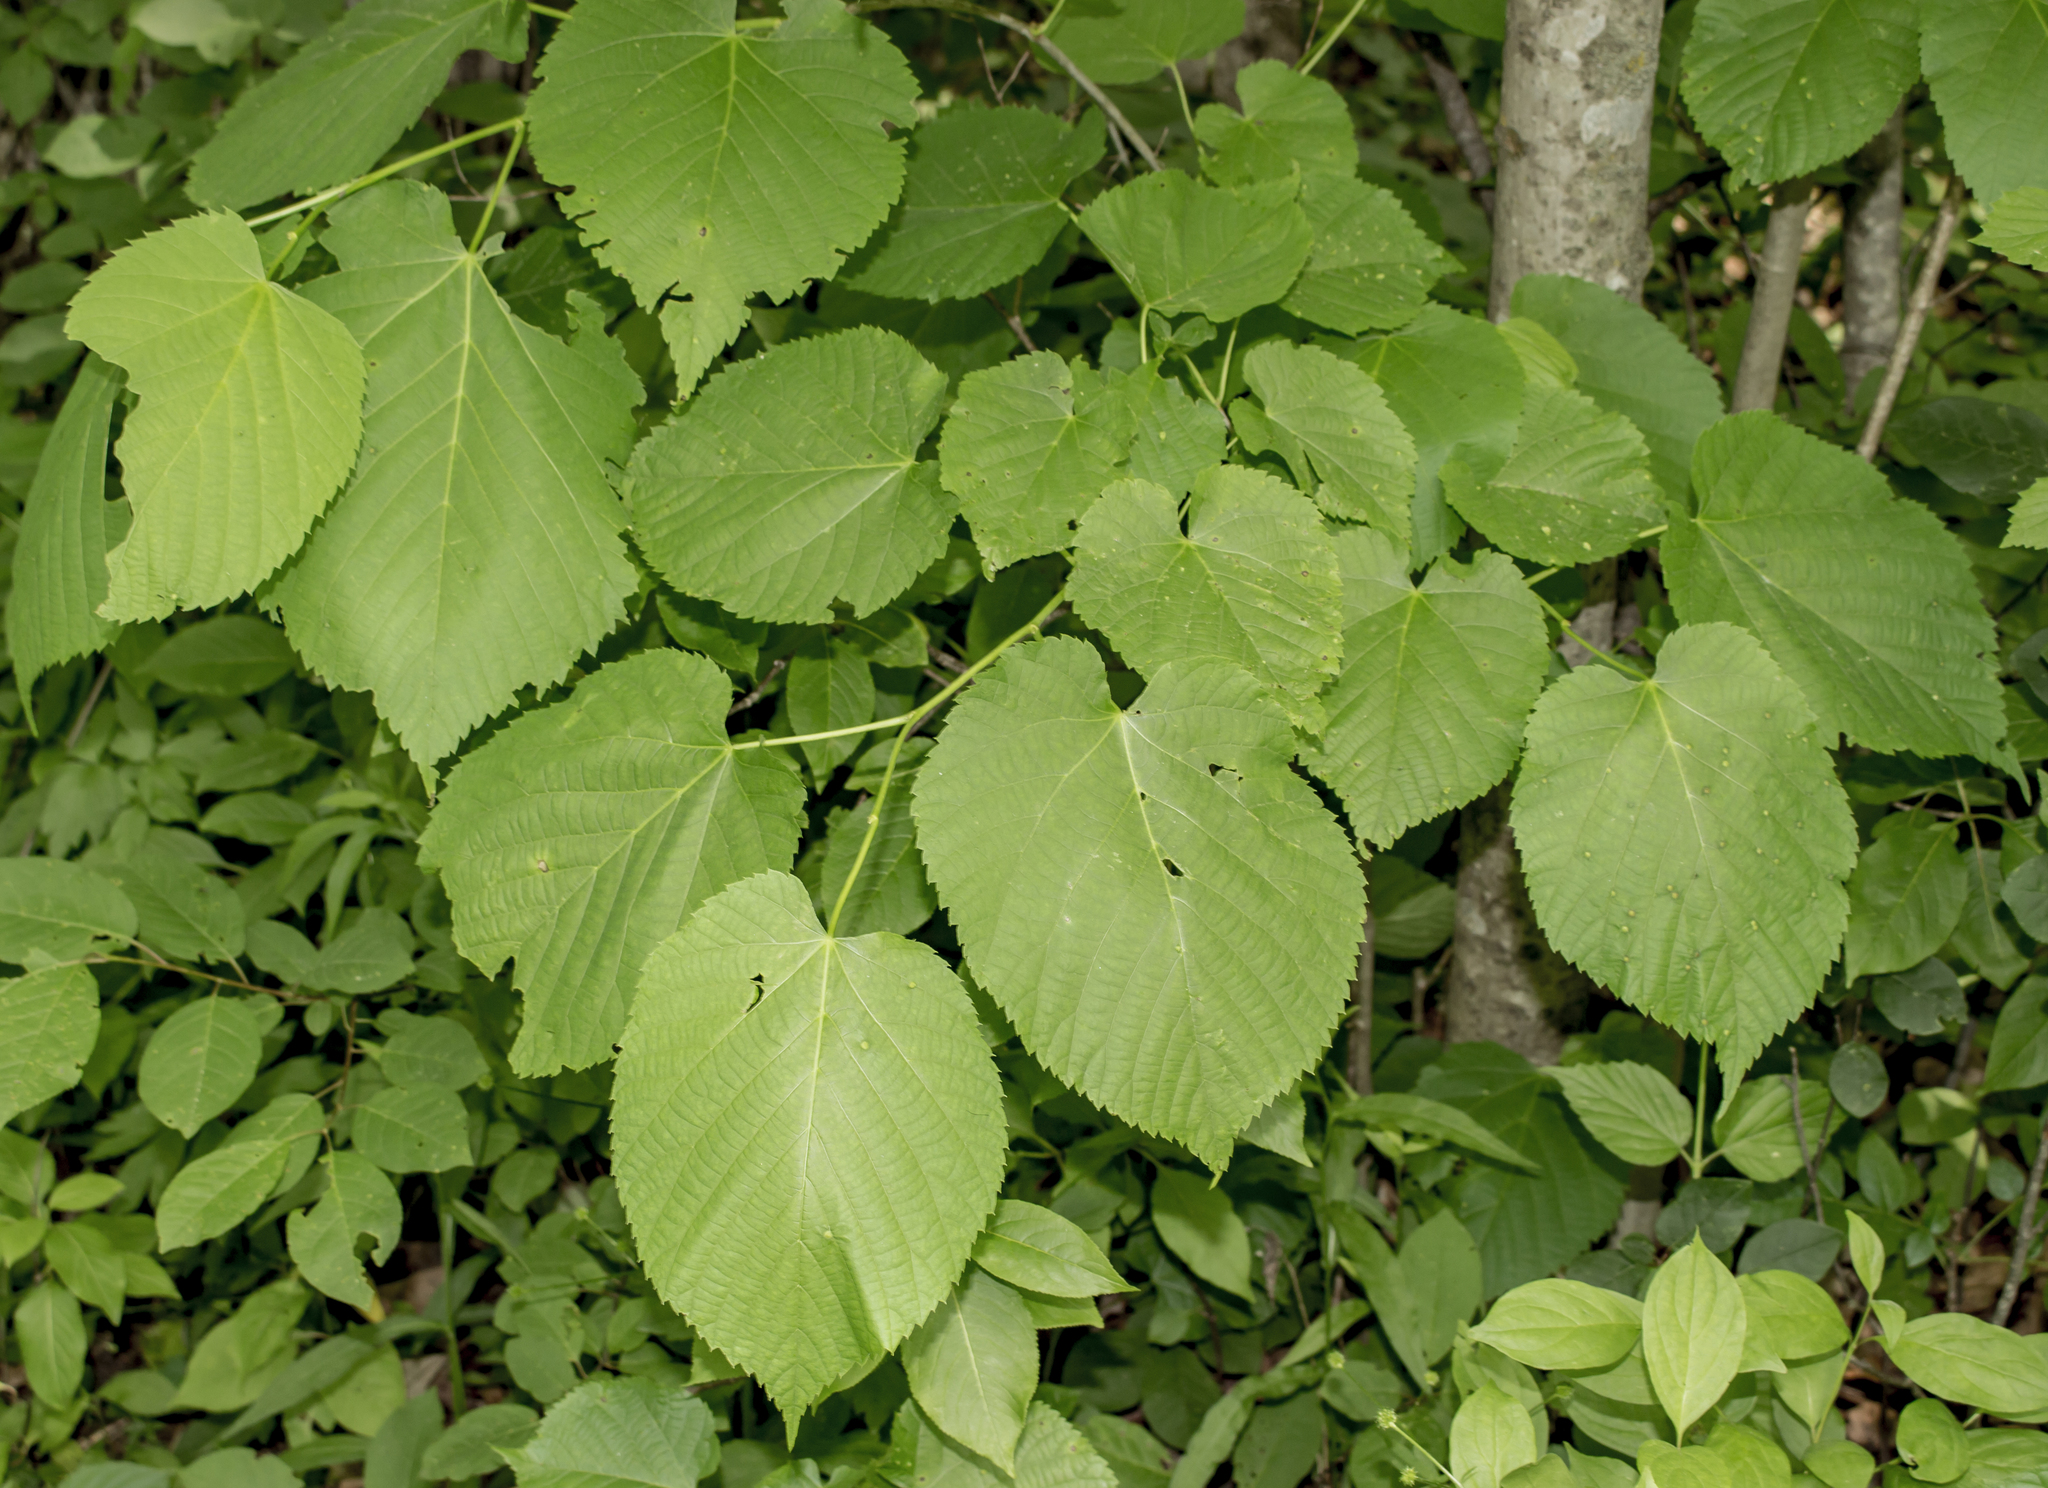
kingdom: Plantae
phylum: Tracheophyta
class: Magnoliopsida
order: Malvales
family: Malvaceae
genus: Tilia
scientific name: Tilia americana
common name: Basswood
